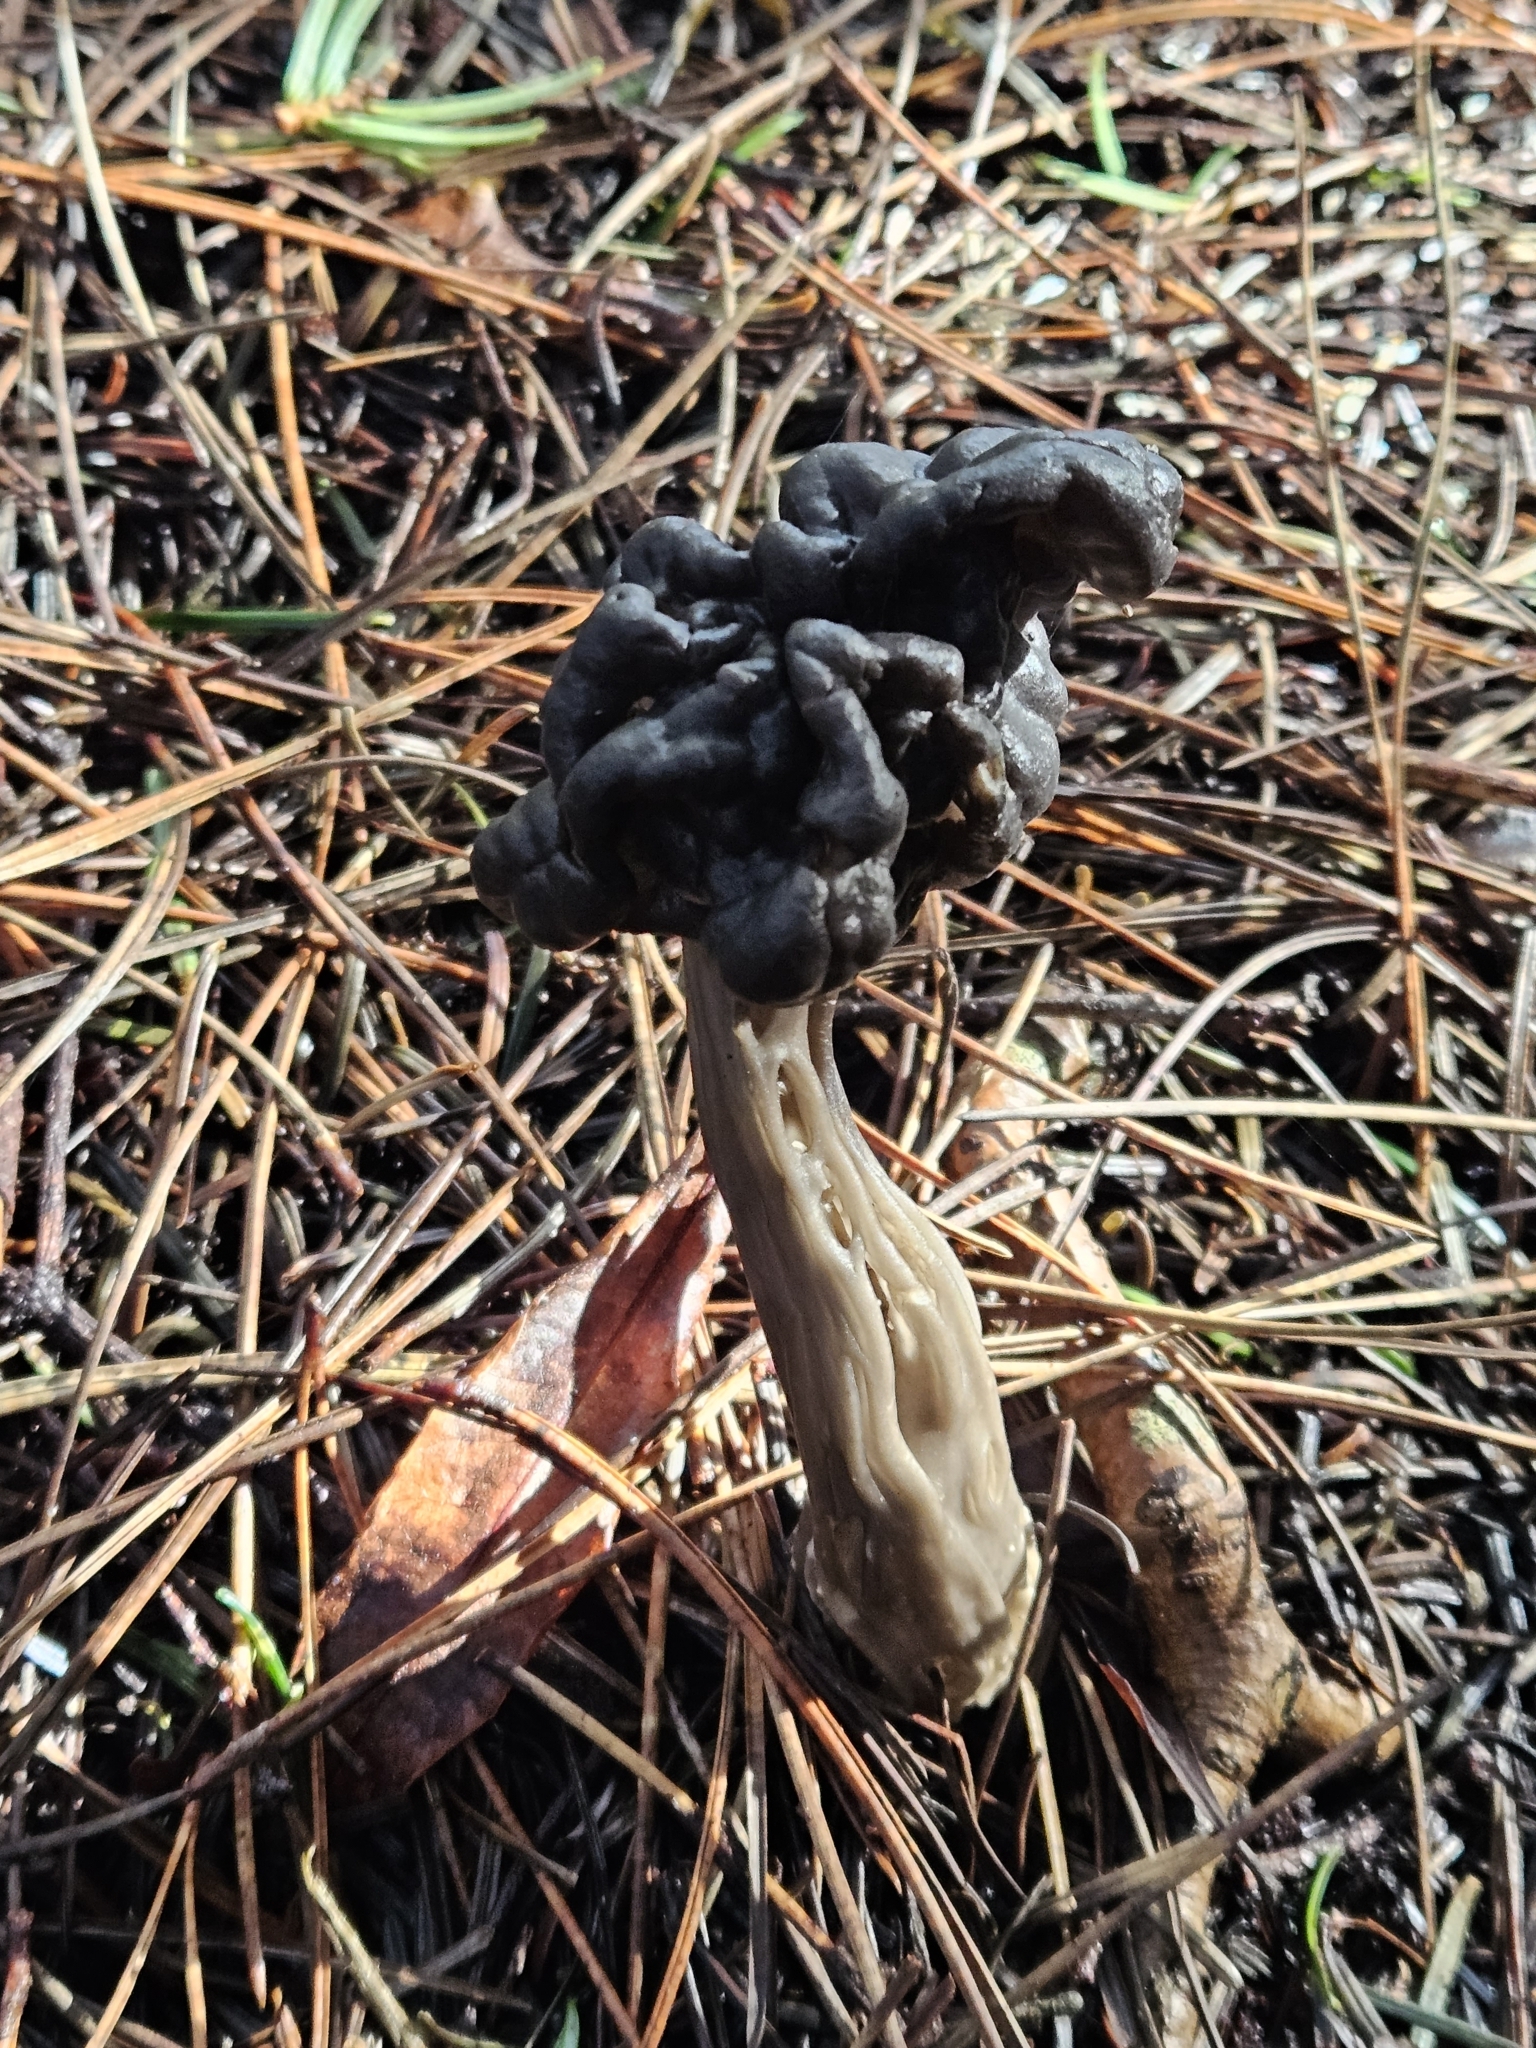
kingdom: Fungi
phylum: Ascomycota
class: Pezizomycetes
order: Pezizales
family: Helvellaceae
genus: Helvella
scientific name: Helvella vespertina
